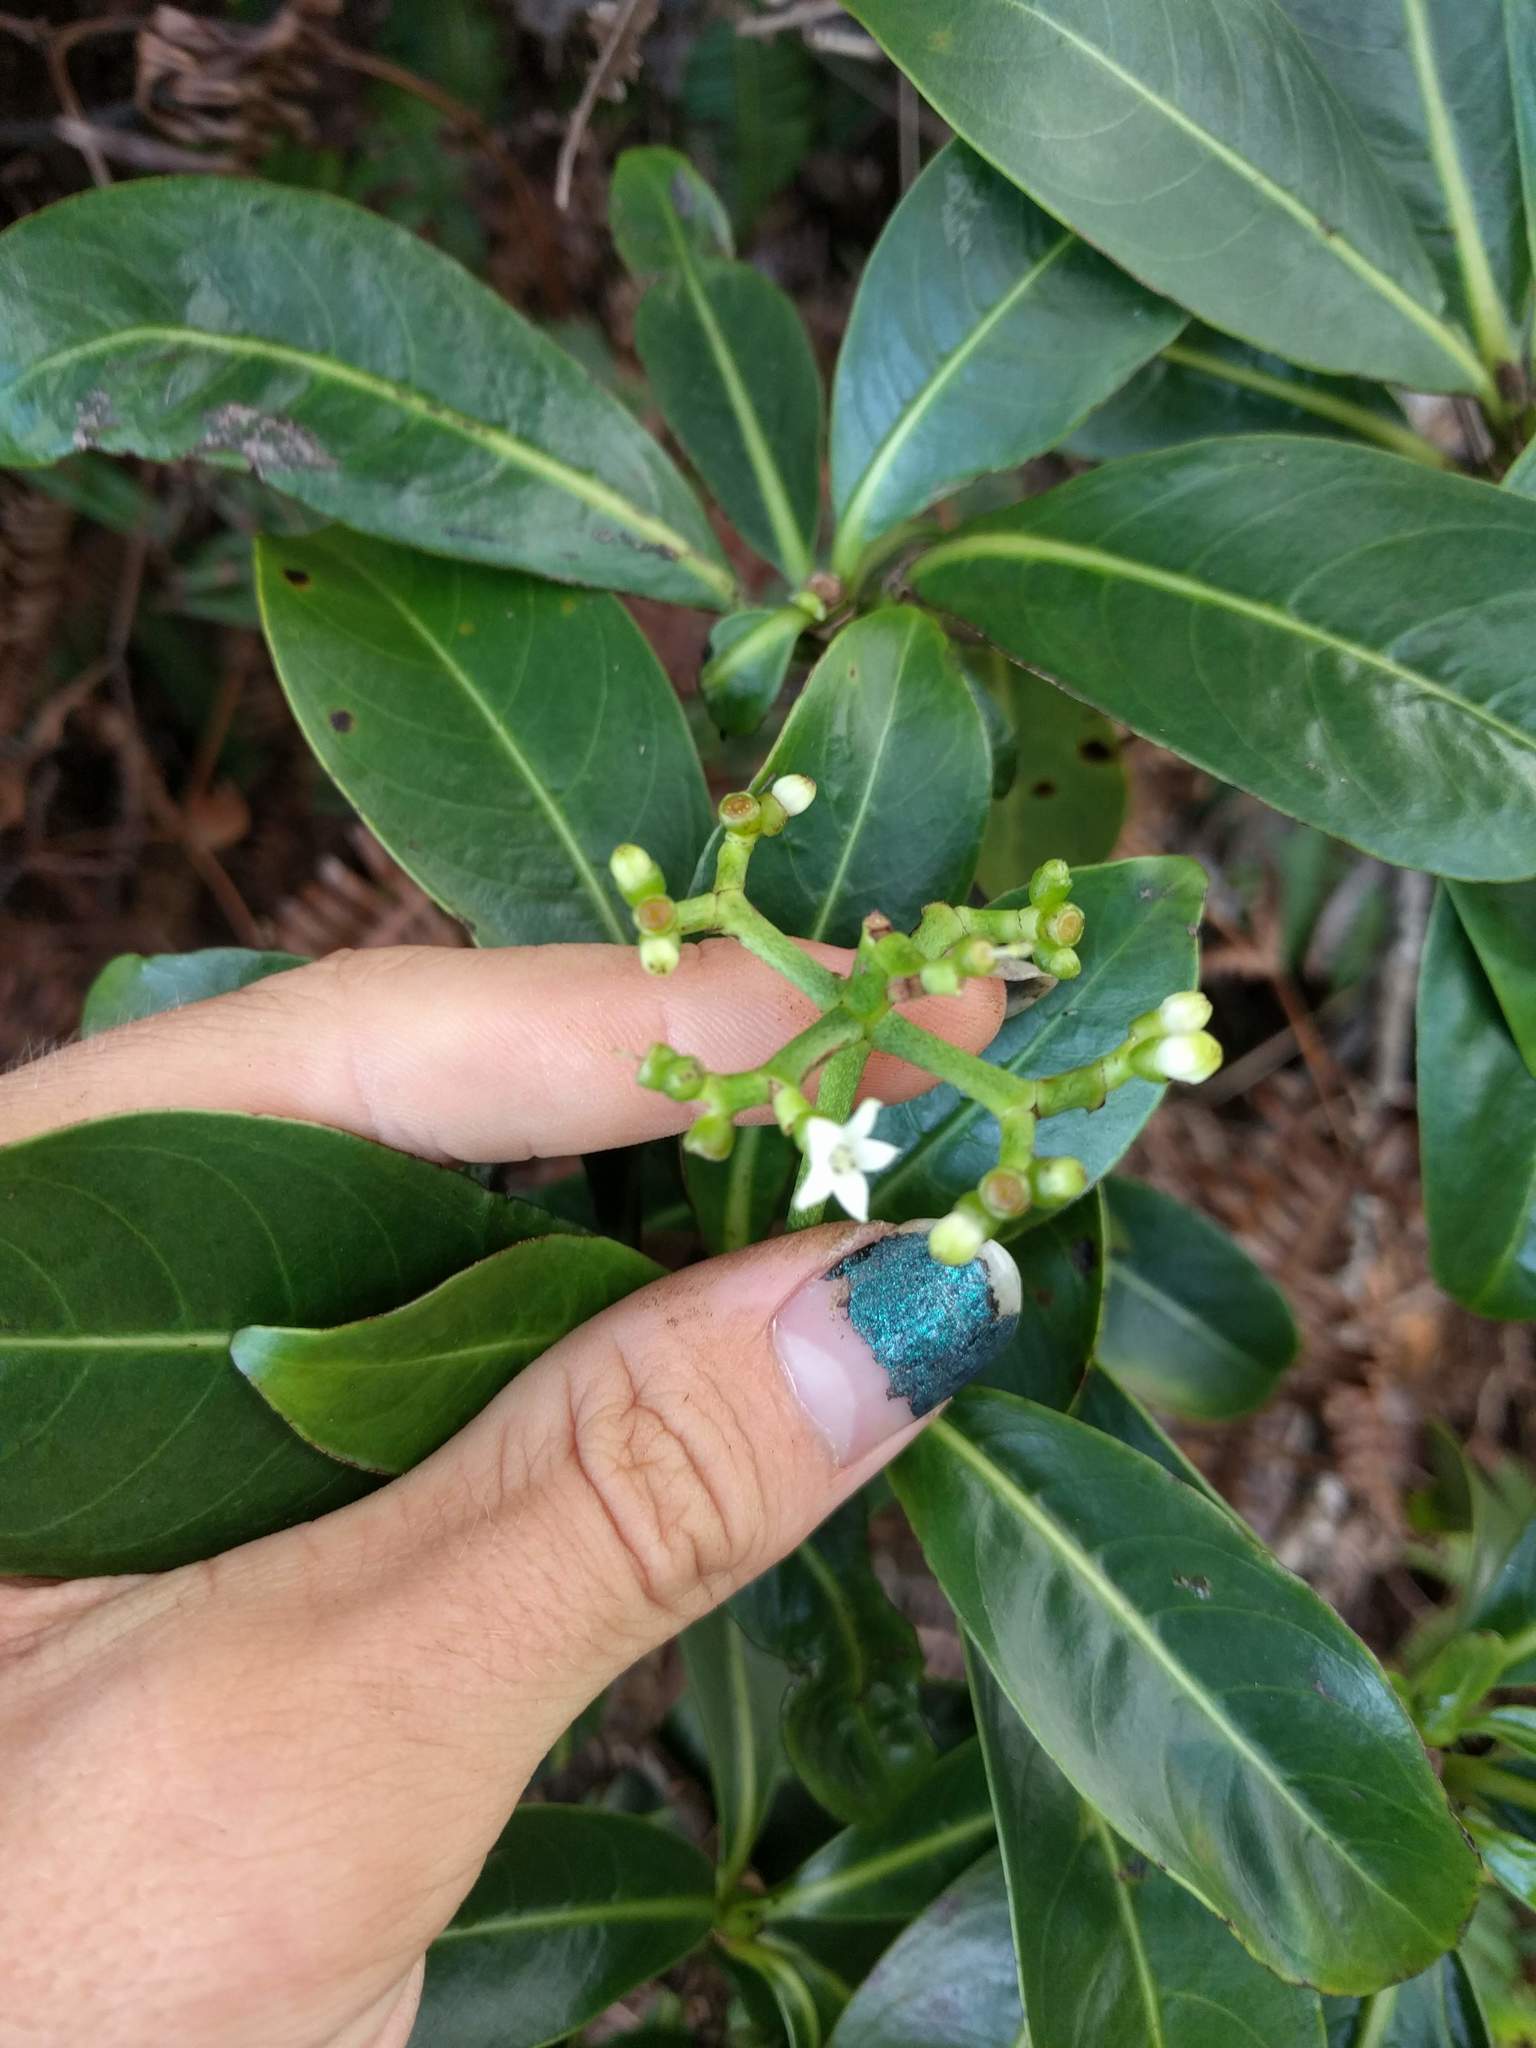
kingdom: Plantae
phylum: Tracheophyta
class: Magnoliopsida
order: Gentianales
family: Rubiaceae
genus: Psychotria
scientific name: Psychotria mariniana
